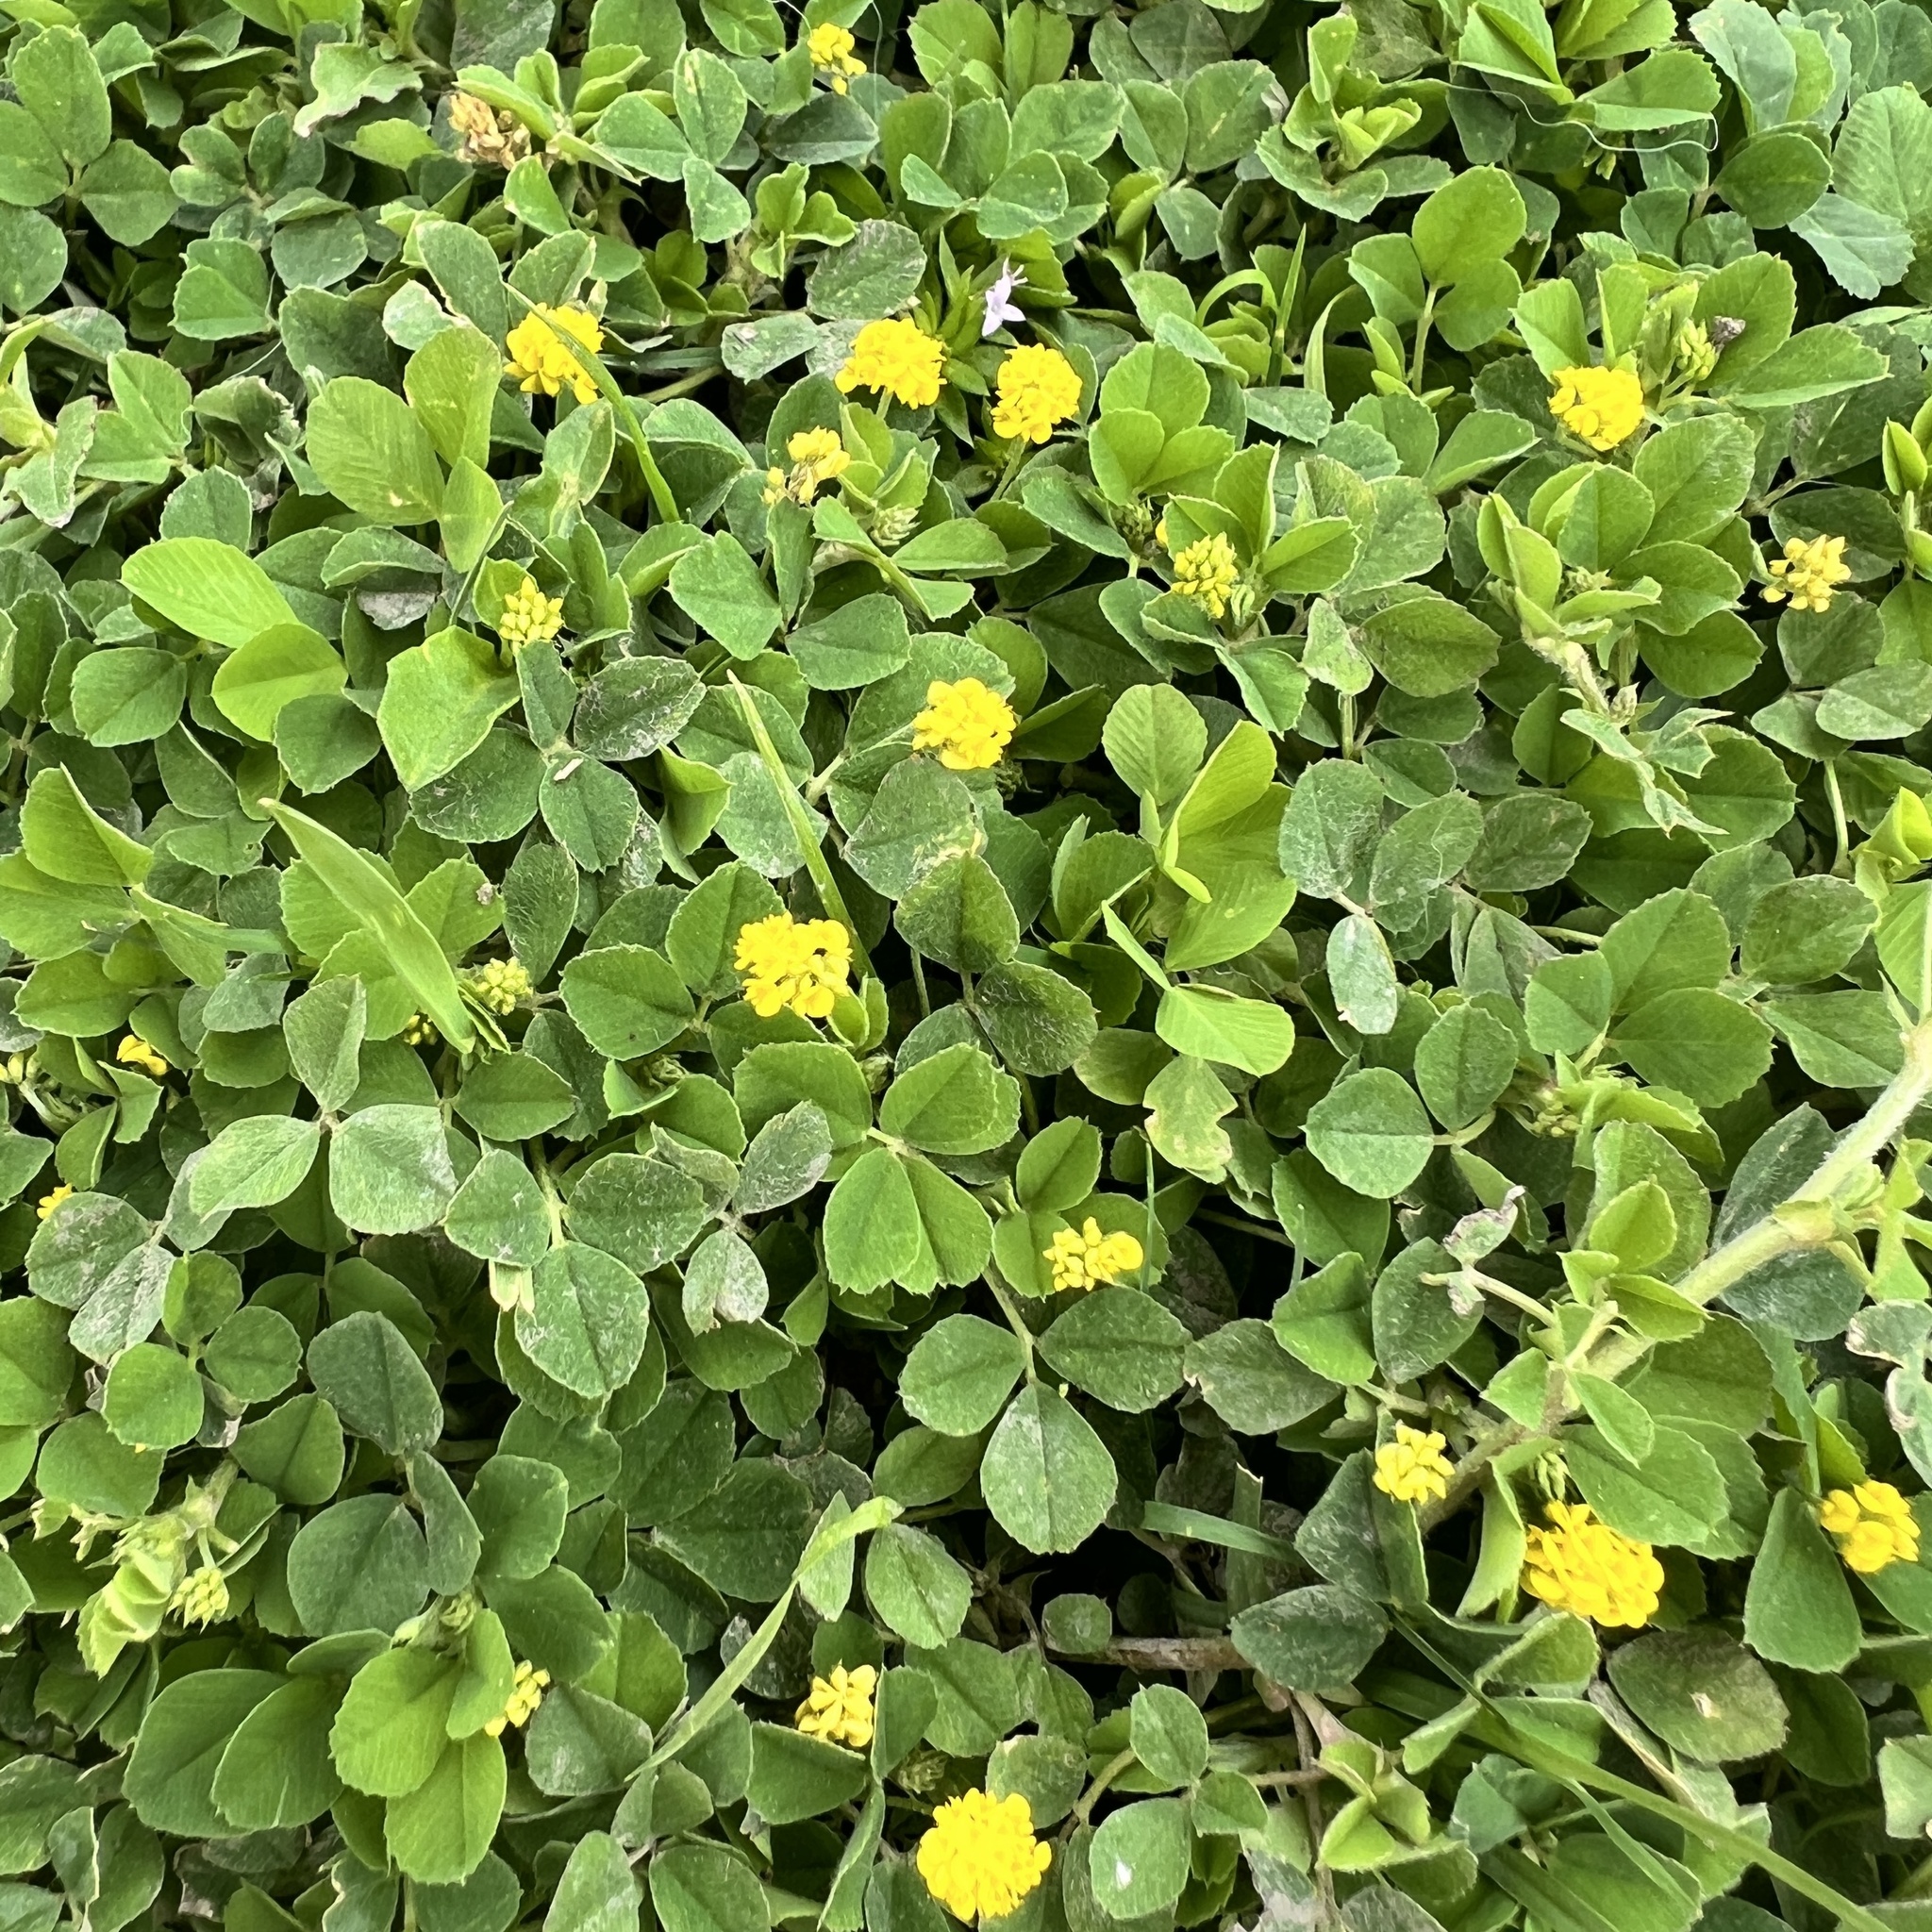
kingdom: Plantae
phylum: Tracheophyta
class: Magnoliopsida
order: Fabales
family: Fabaceae
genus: Medicago
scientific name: Medicago lupulina
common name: Black medick
